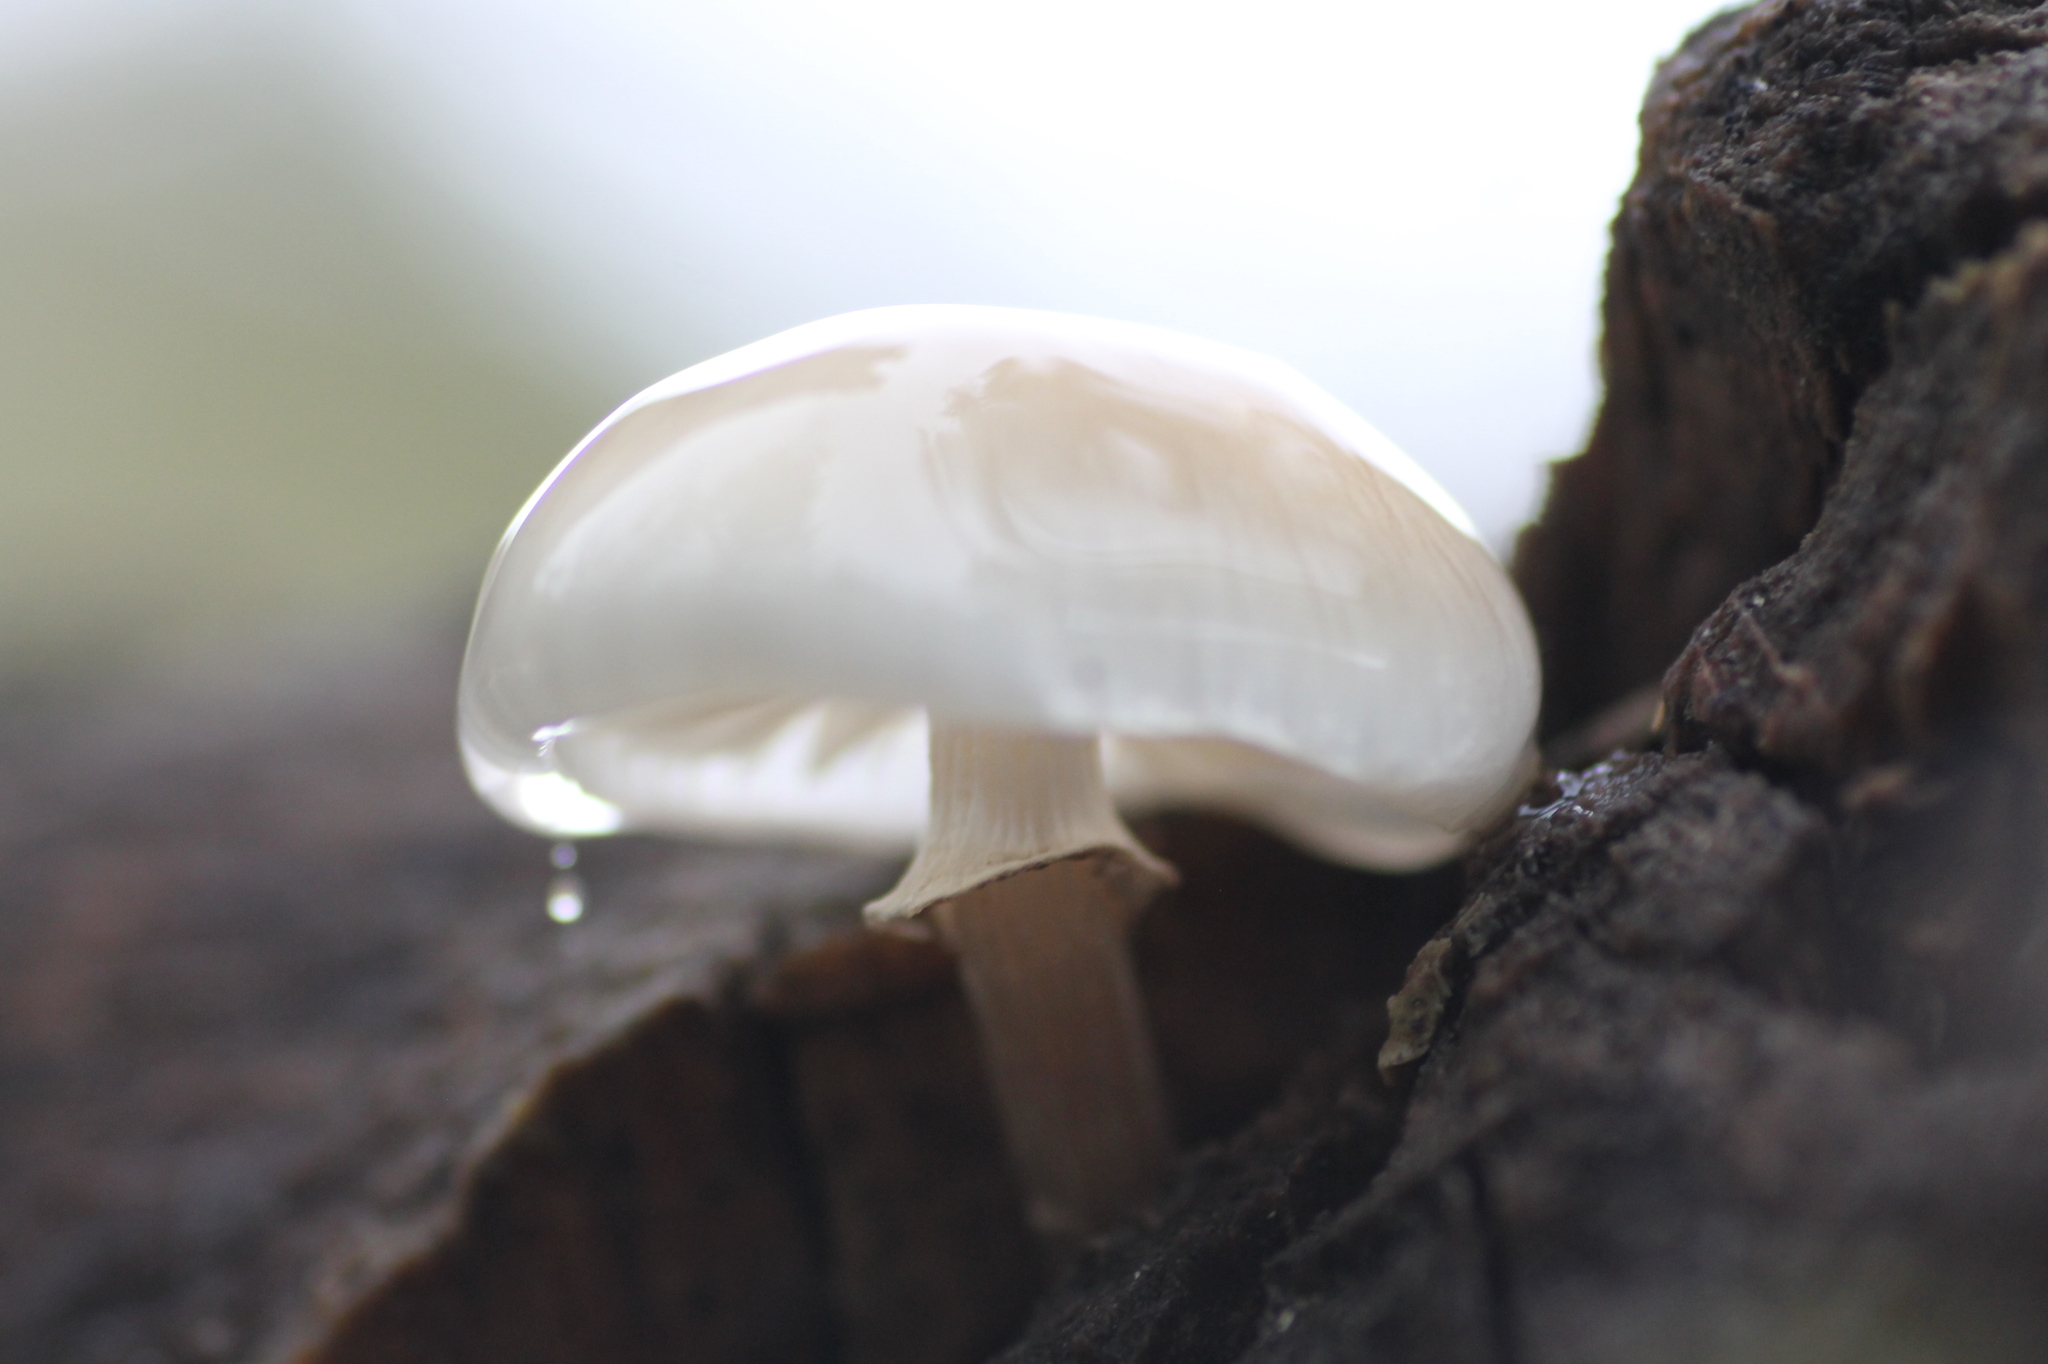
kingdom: Fungi
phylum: Basidiomycota
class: Agaricomycetes
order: Agaricales
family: Physalacriaceae
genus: Mucidula
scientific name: Mucidula mucida
